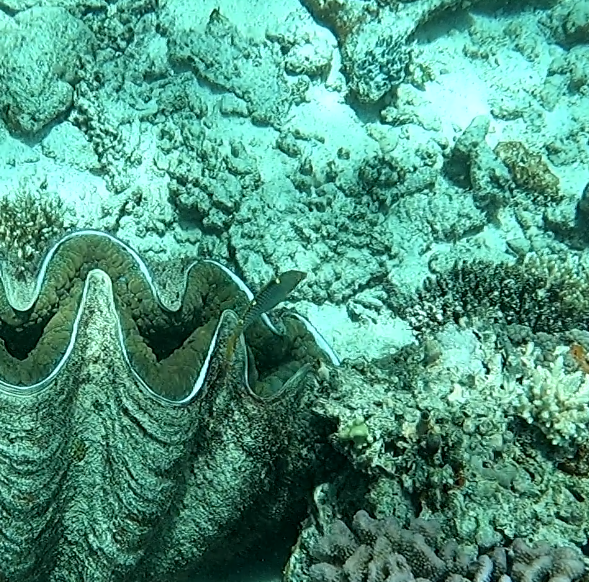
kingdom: Animalia
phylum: Chordata
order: Perciformes
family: Labridae
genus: Halichoeres
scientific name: Halichoeres hortulanus
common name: Checkerboard wrasse
